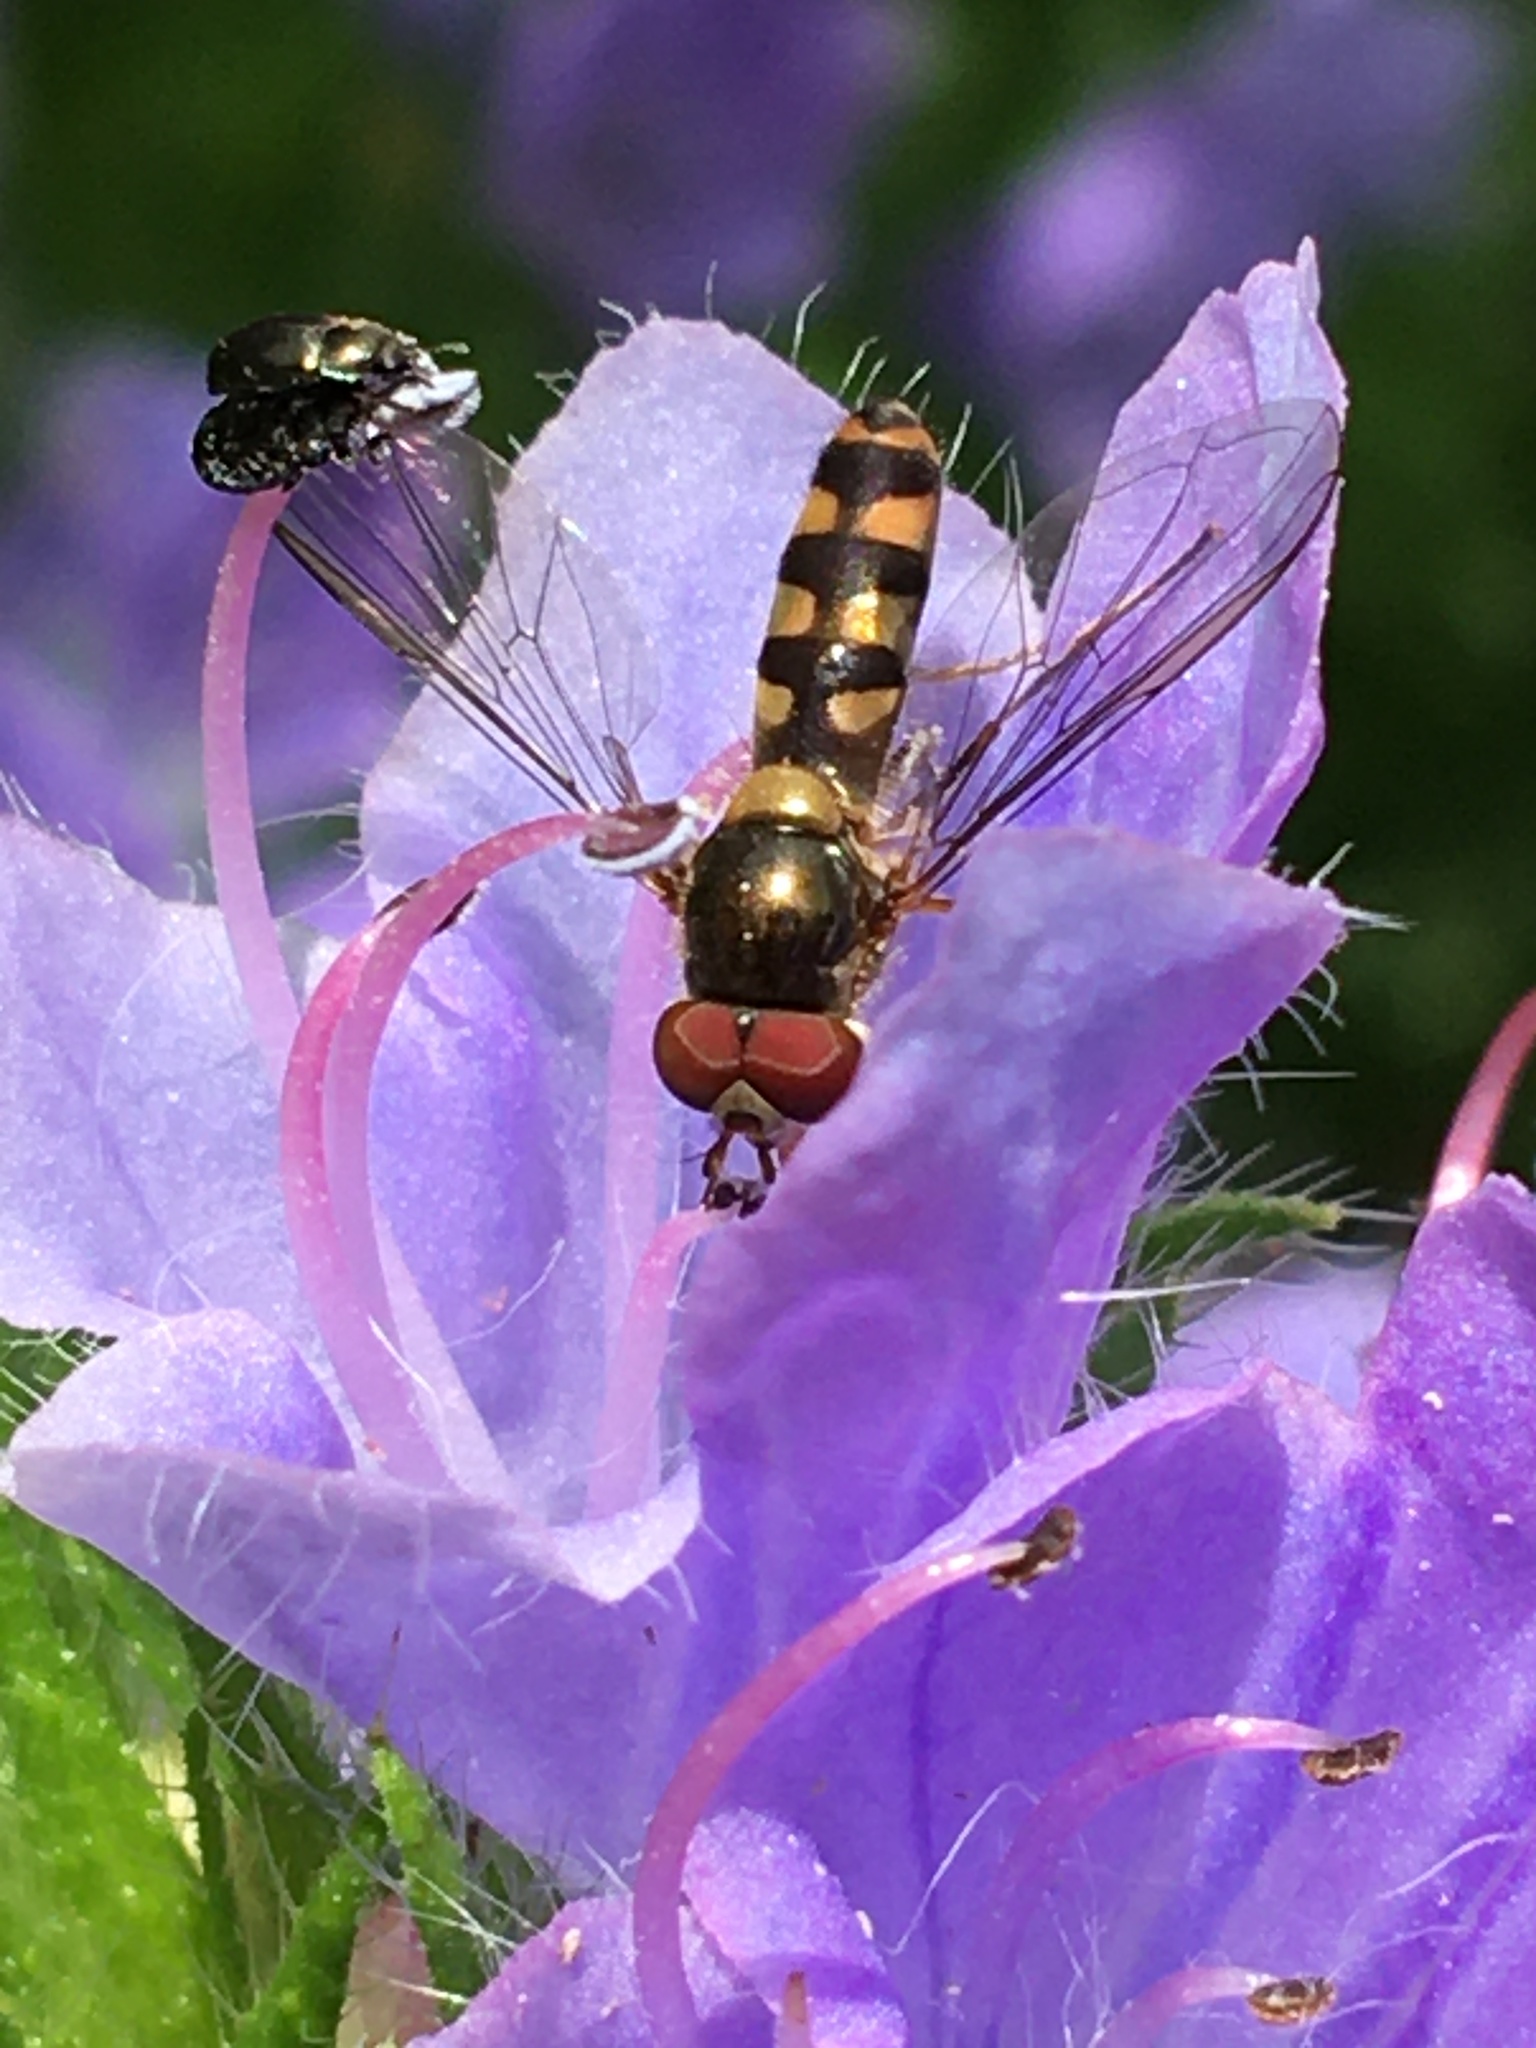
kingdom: Animalia
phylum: Arthropoda
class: Insecta
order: Diptera
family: Syrphidae
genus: Meliscaeva
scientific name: Meliscaeva auricollis
